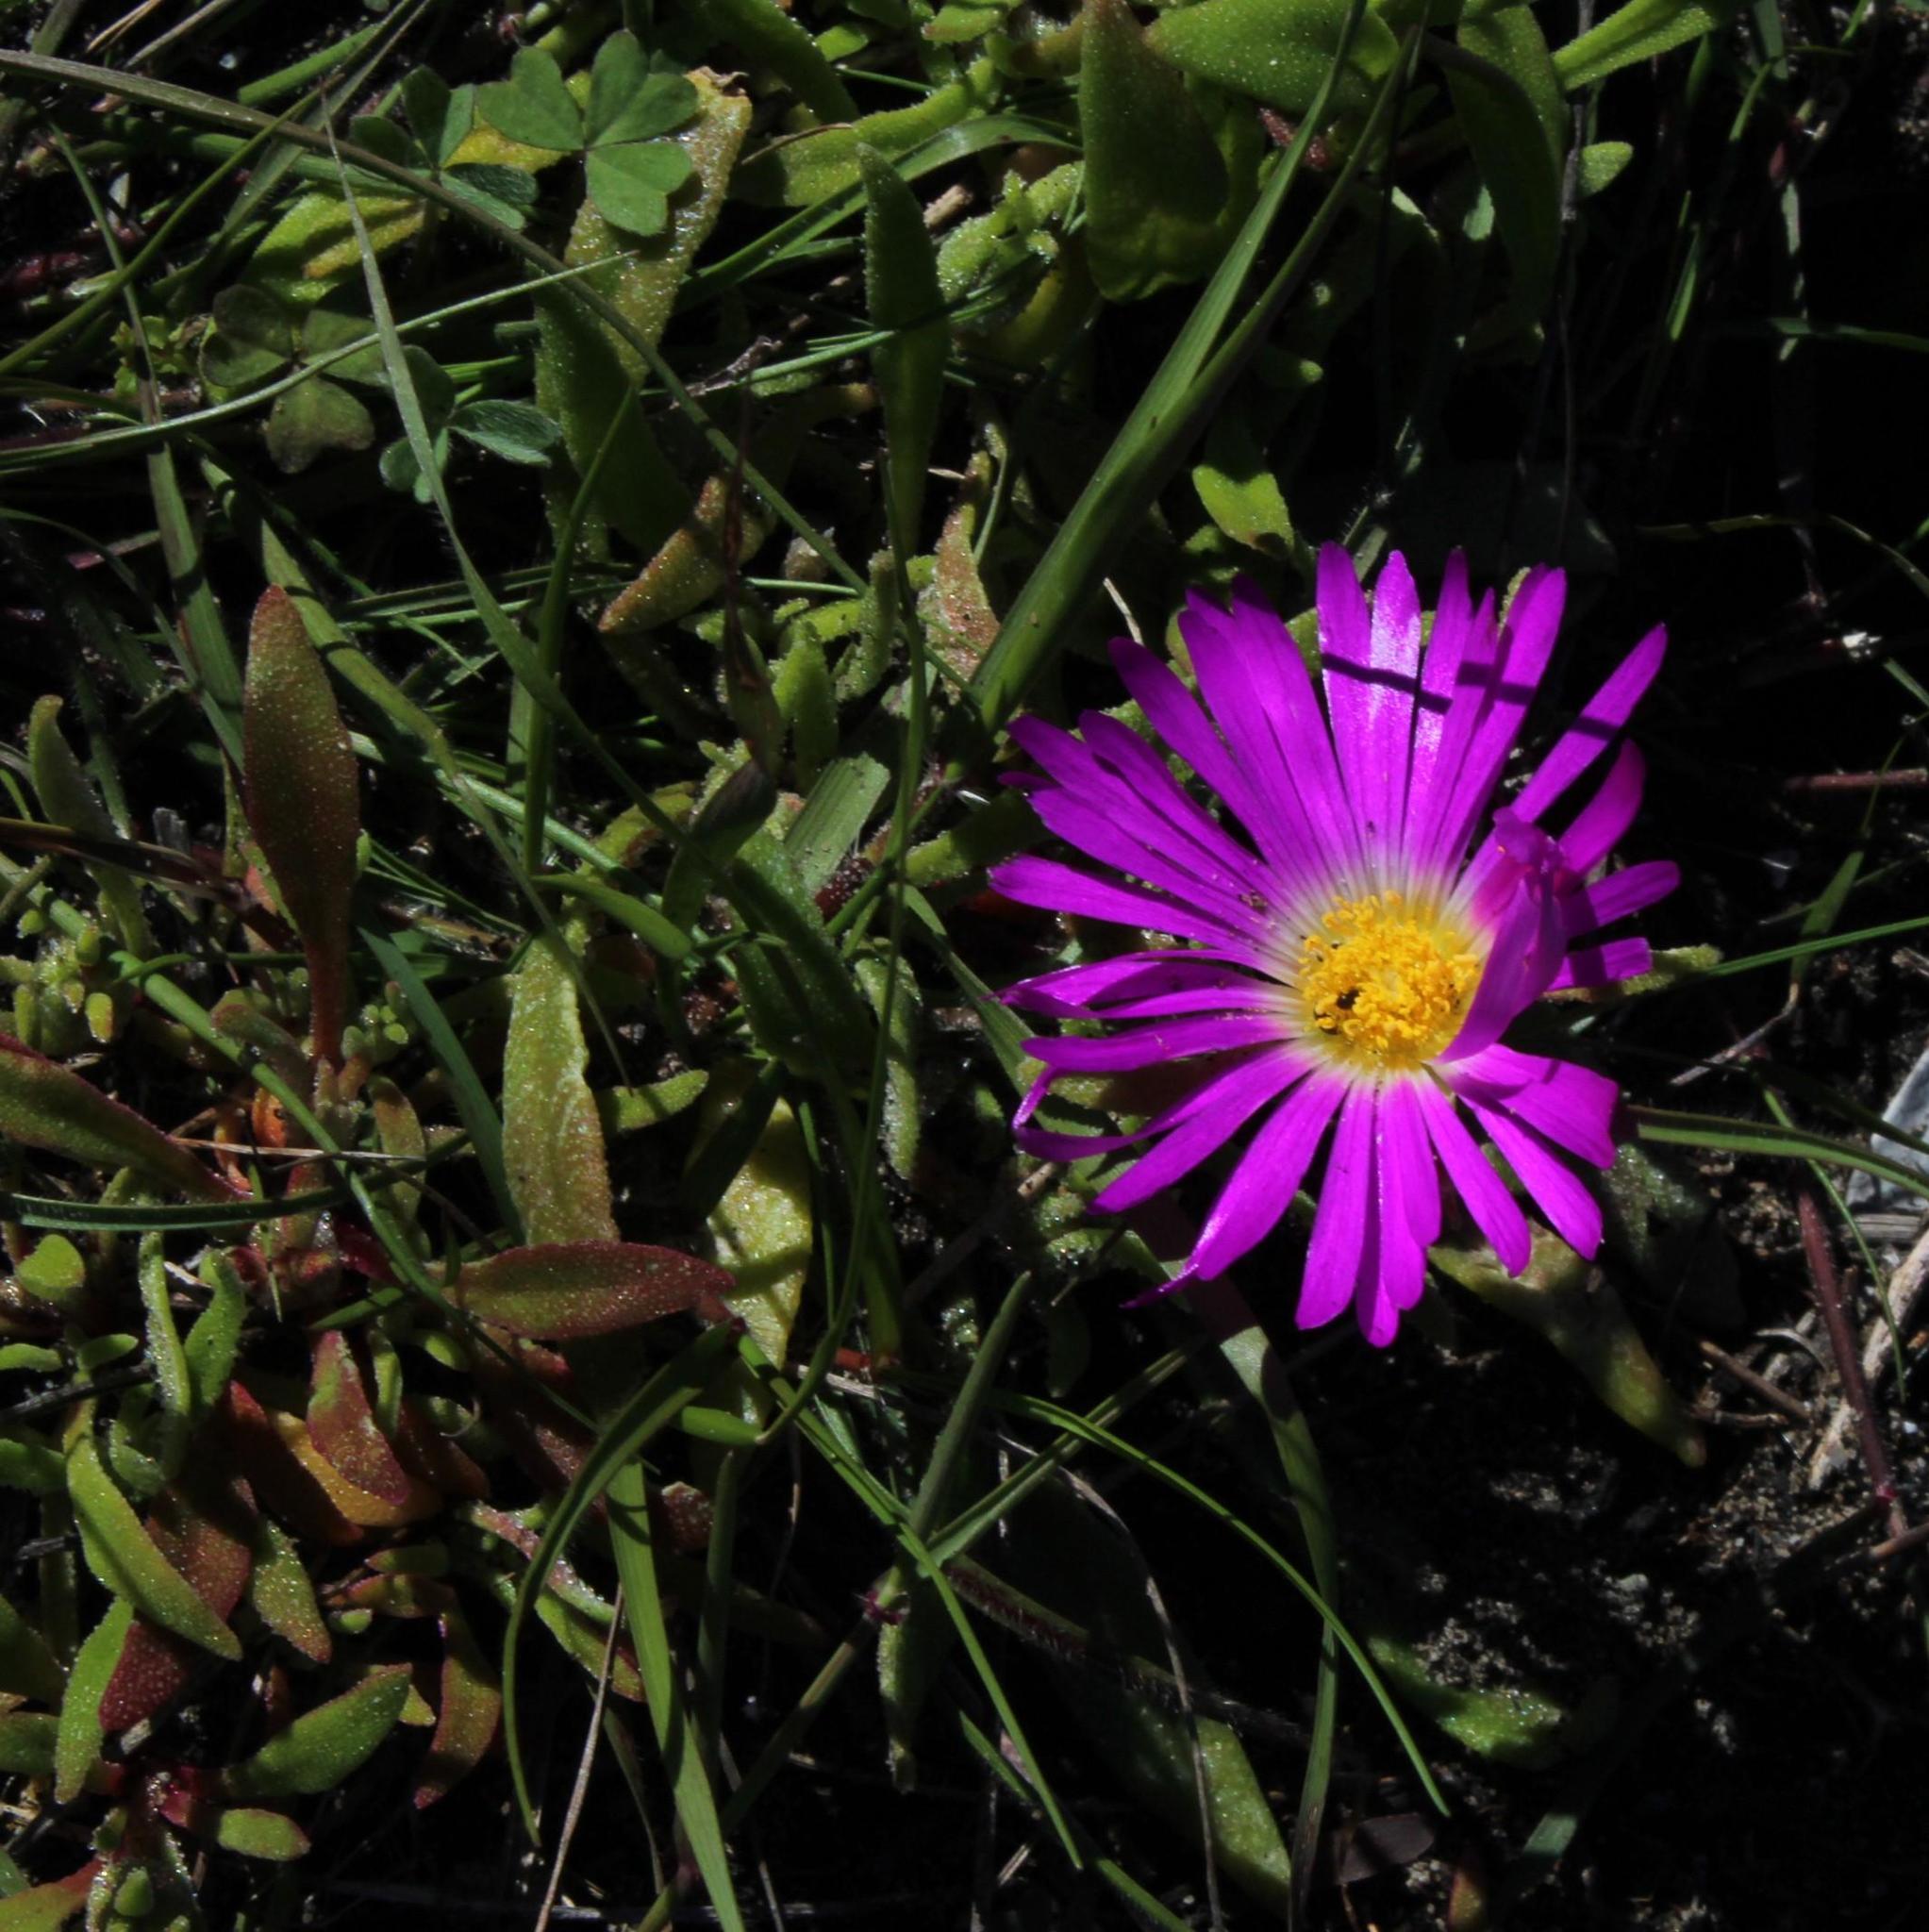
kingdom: Plantae
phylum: Tracheophyta
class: Magnoliopsida
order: Caryophyllales
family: Aizoaceae
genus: Cleretum
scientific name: Cleretum bellidiforme
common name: Livingstone daisy
